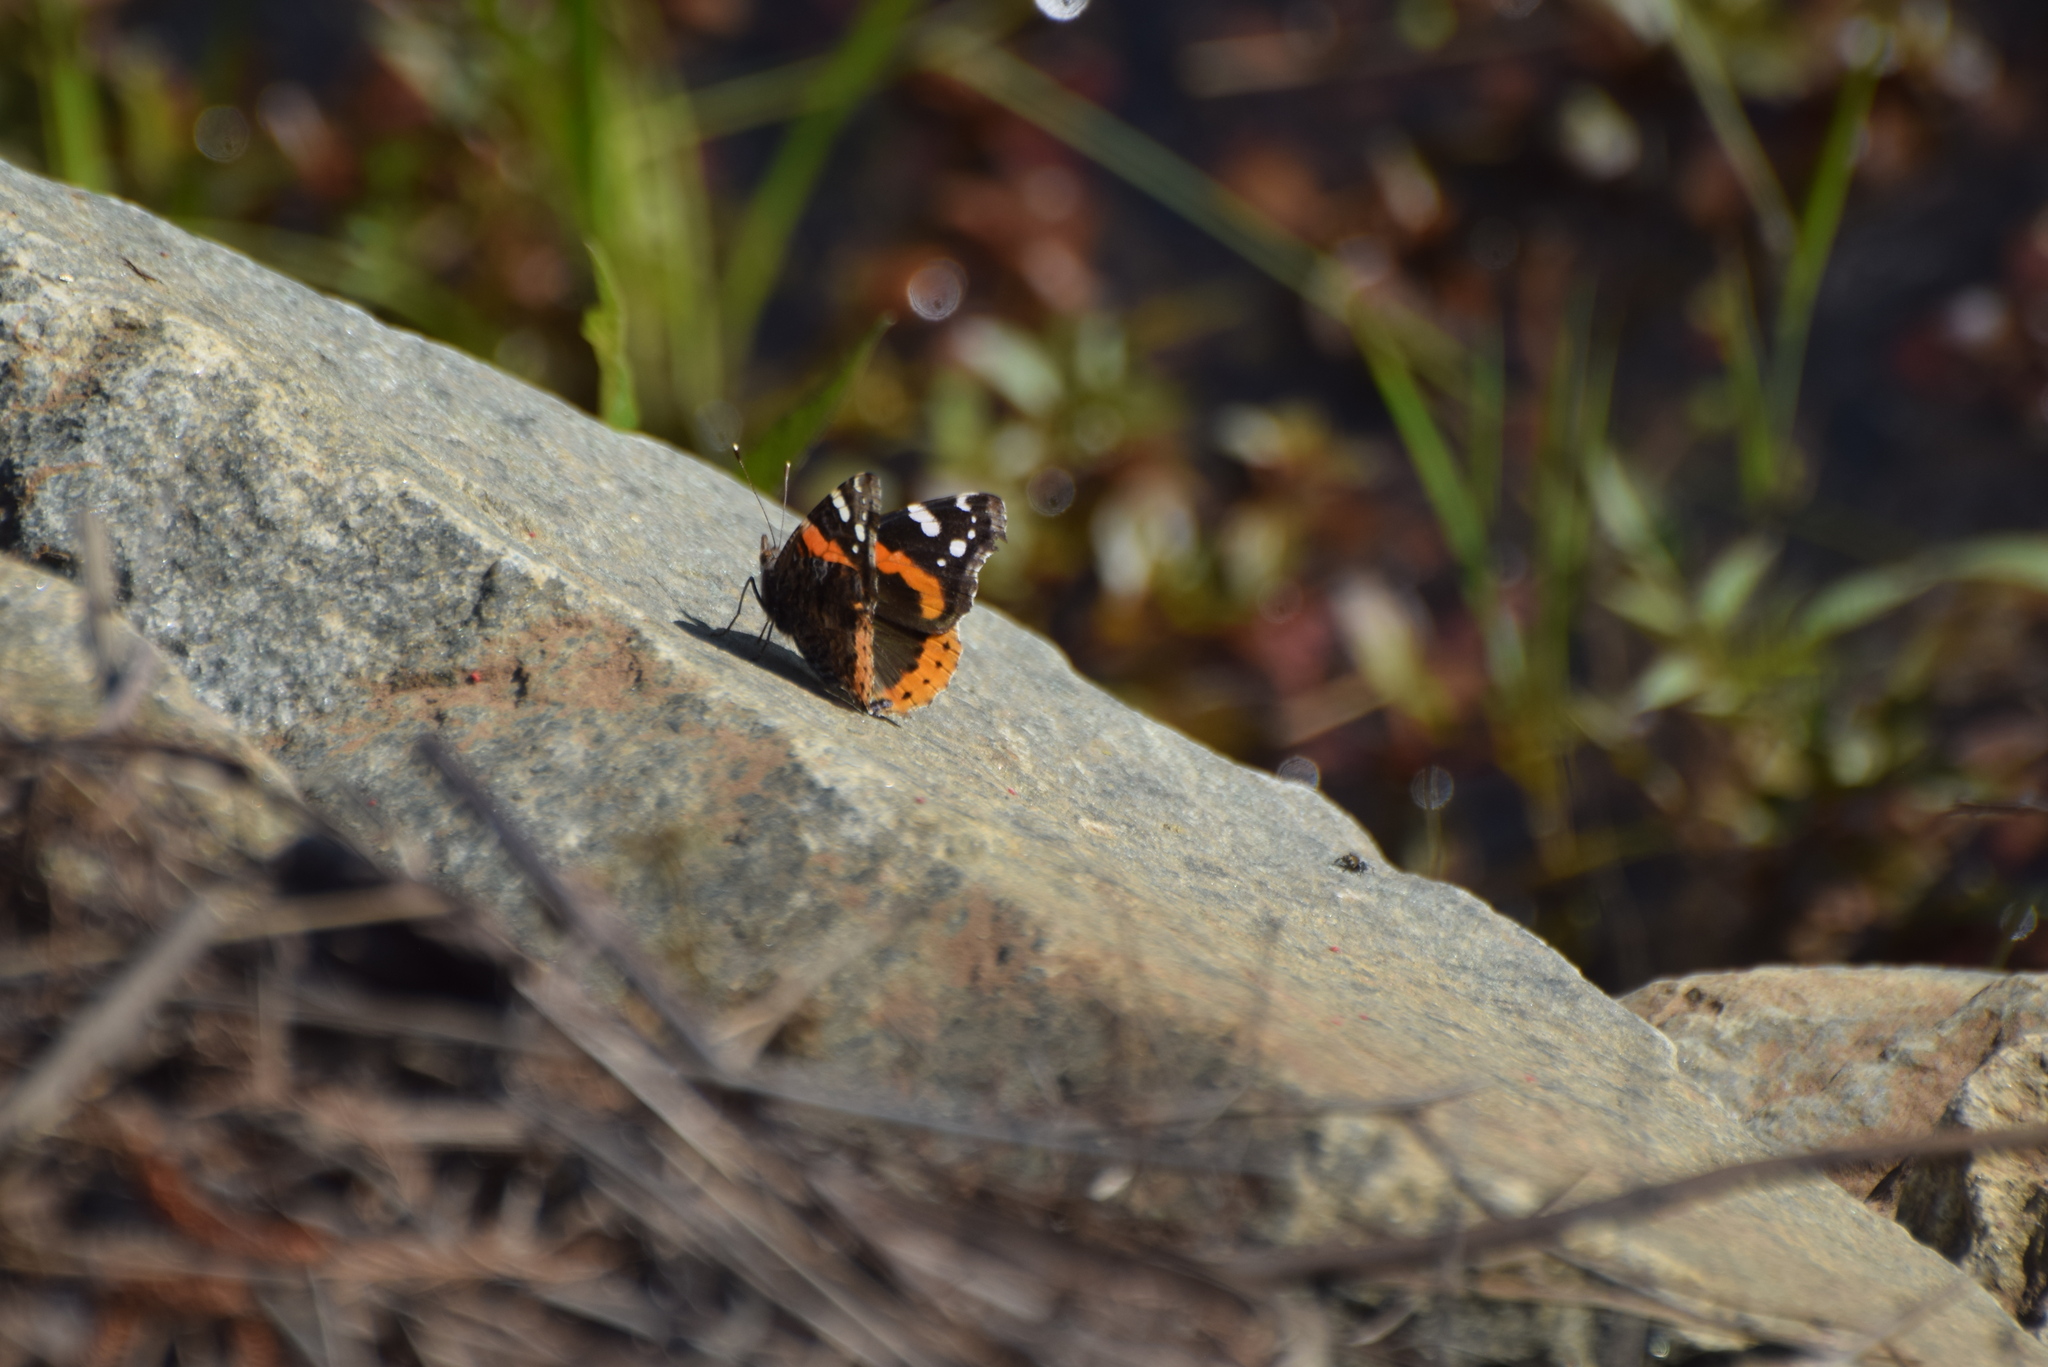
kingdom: Animalia
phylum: Arthropoda
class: Insecta
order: Lepidoptera
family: Nymphalidae
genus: Vanessa
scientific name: Vanessa atalanta
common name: Red admiral
